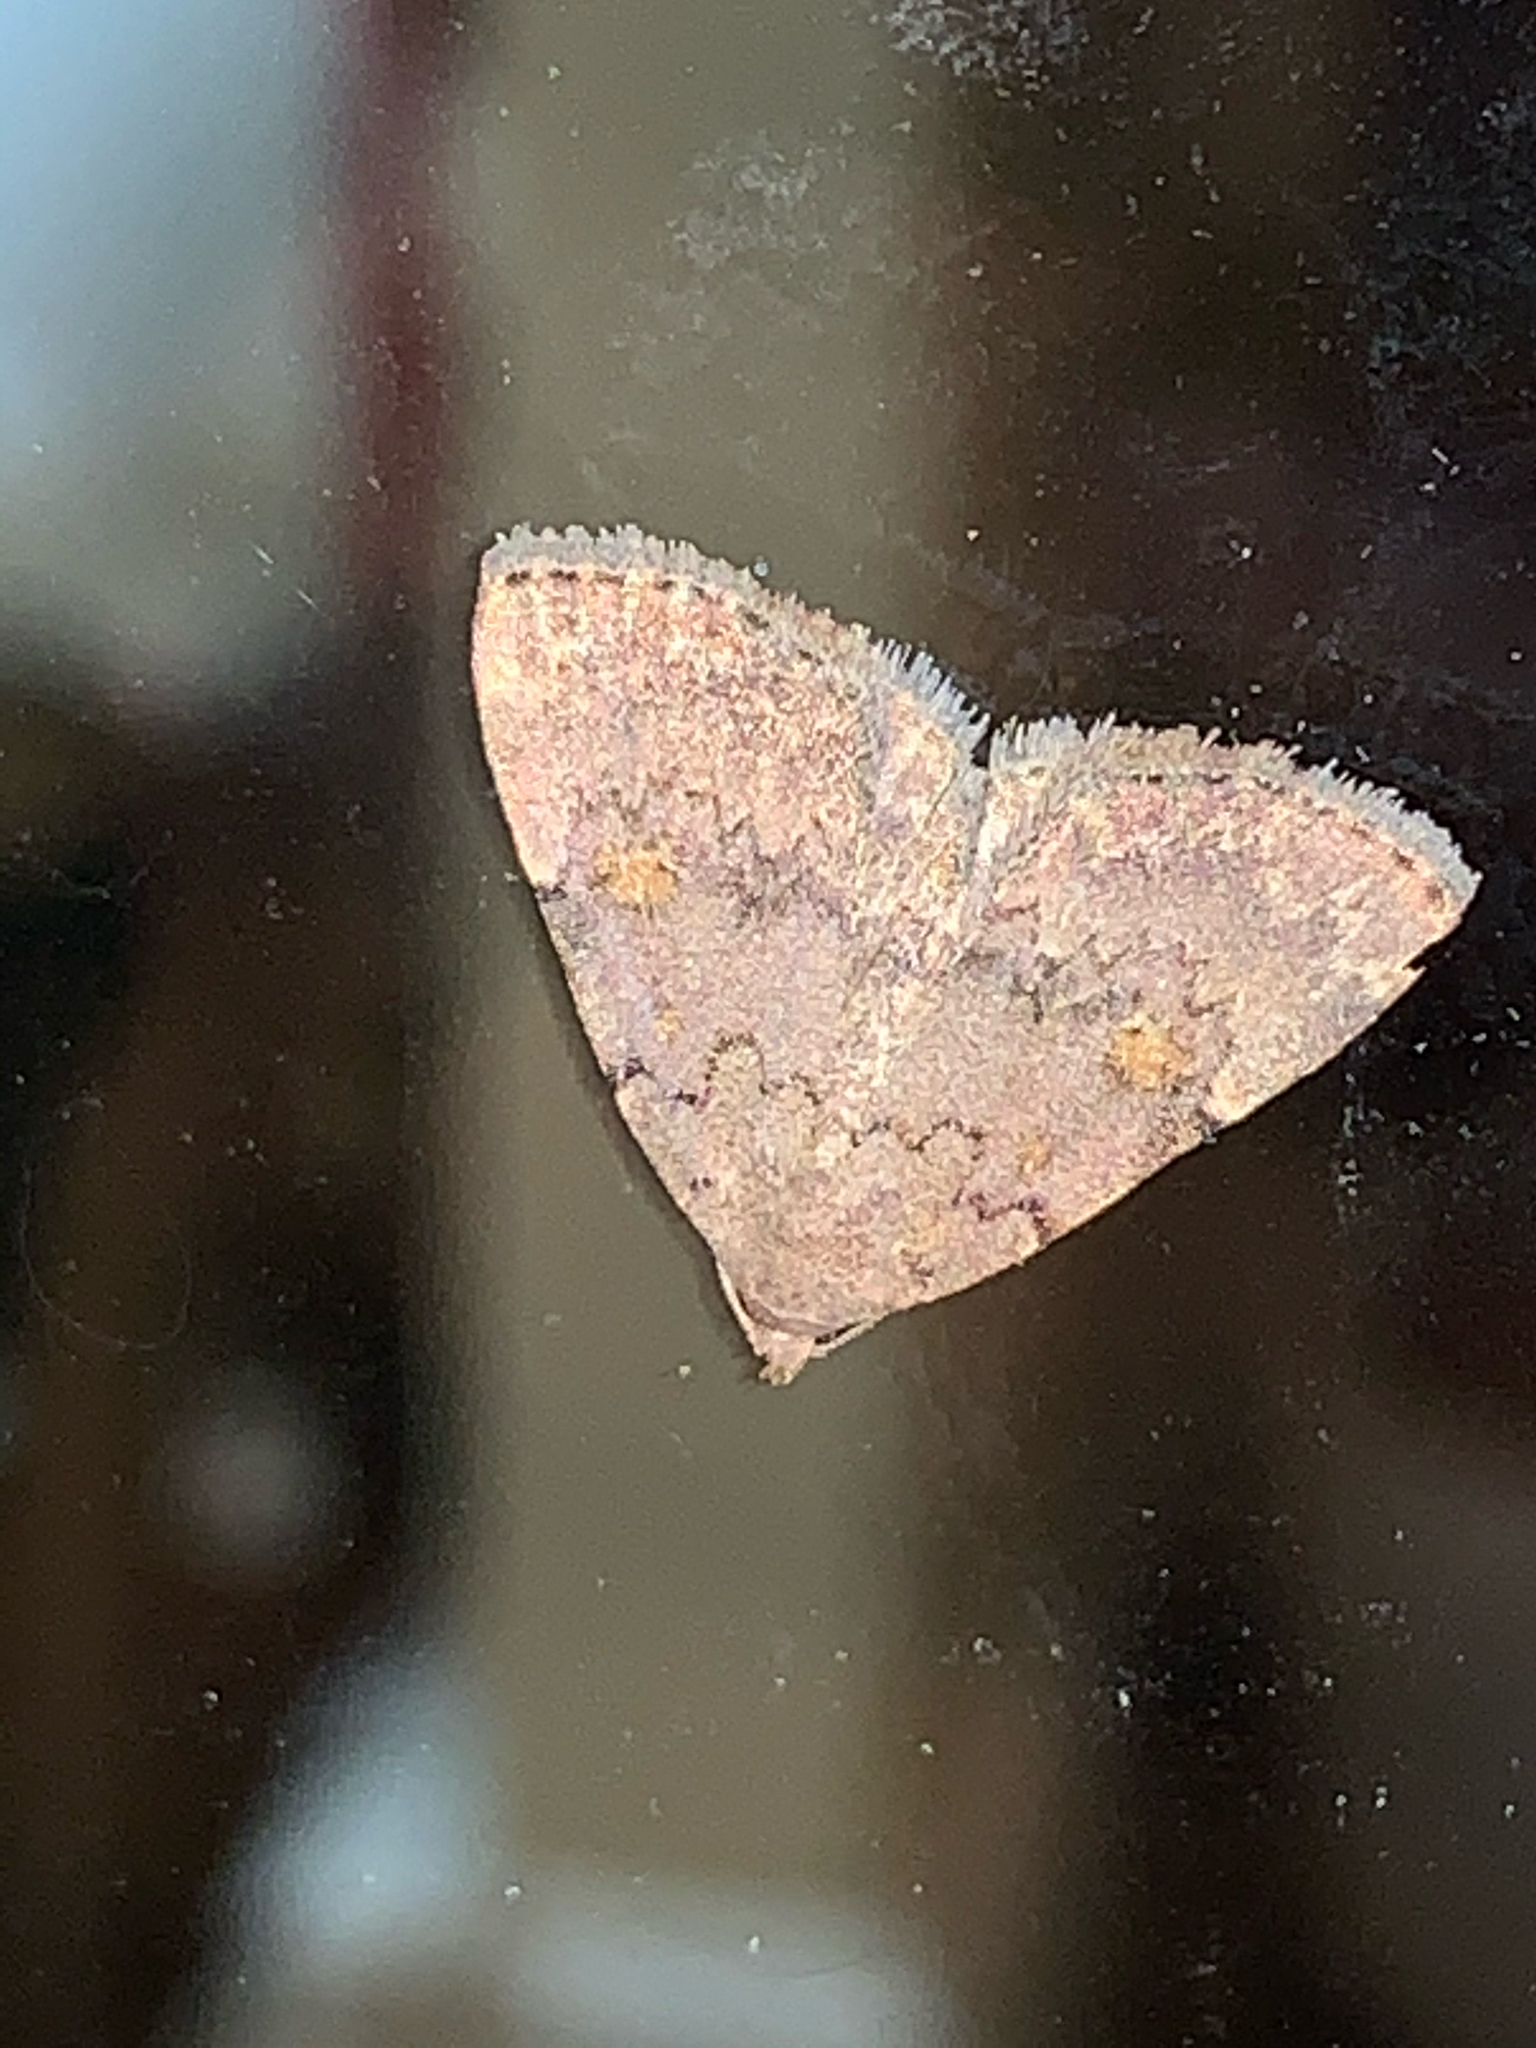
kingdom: Animalia
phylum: Arthropoda
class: Insecta
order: Lepidoptera
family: Erebidae
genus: Idia
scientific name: Idia aemula
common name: Common idia moth
